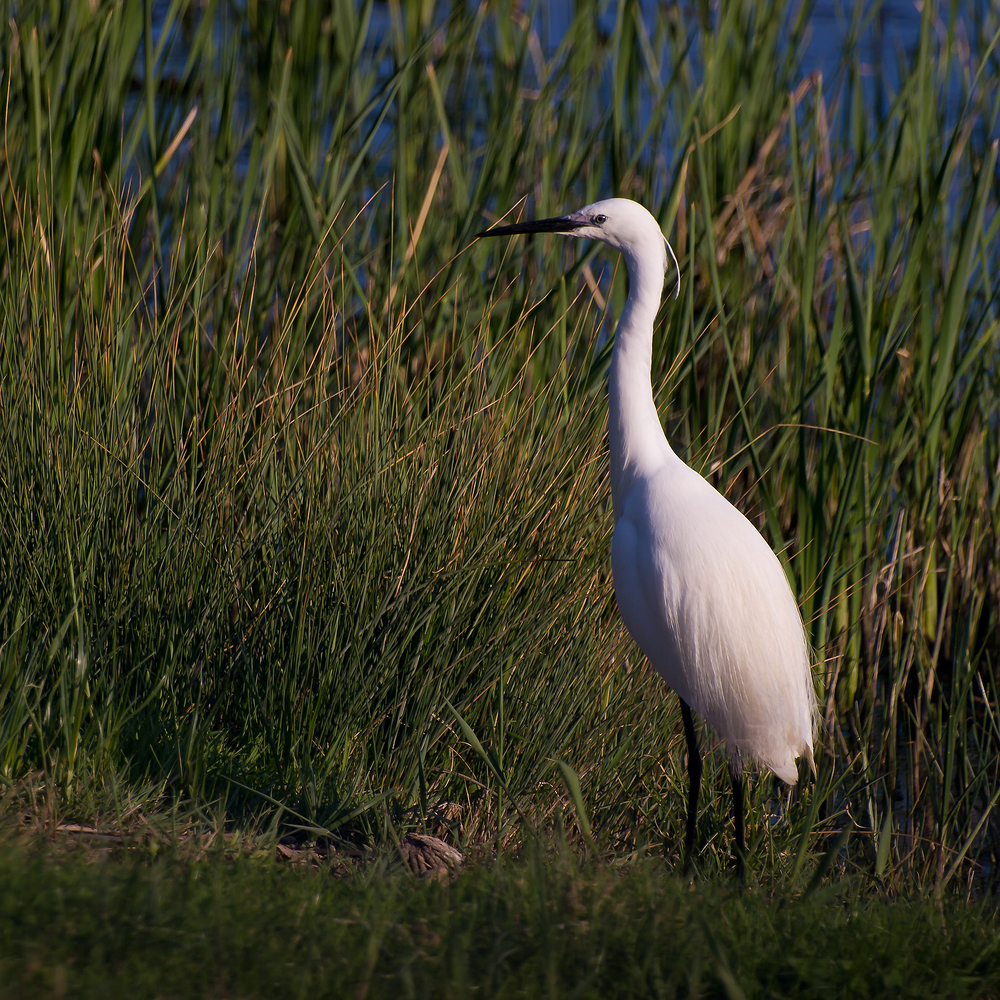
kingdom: Animalia
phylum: Chordata
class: Aves
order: Pelecaniformes
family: Ardeidae
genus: Egretta
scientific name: Egretta garzetta
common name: Little egret
